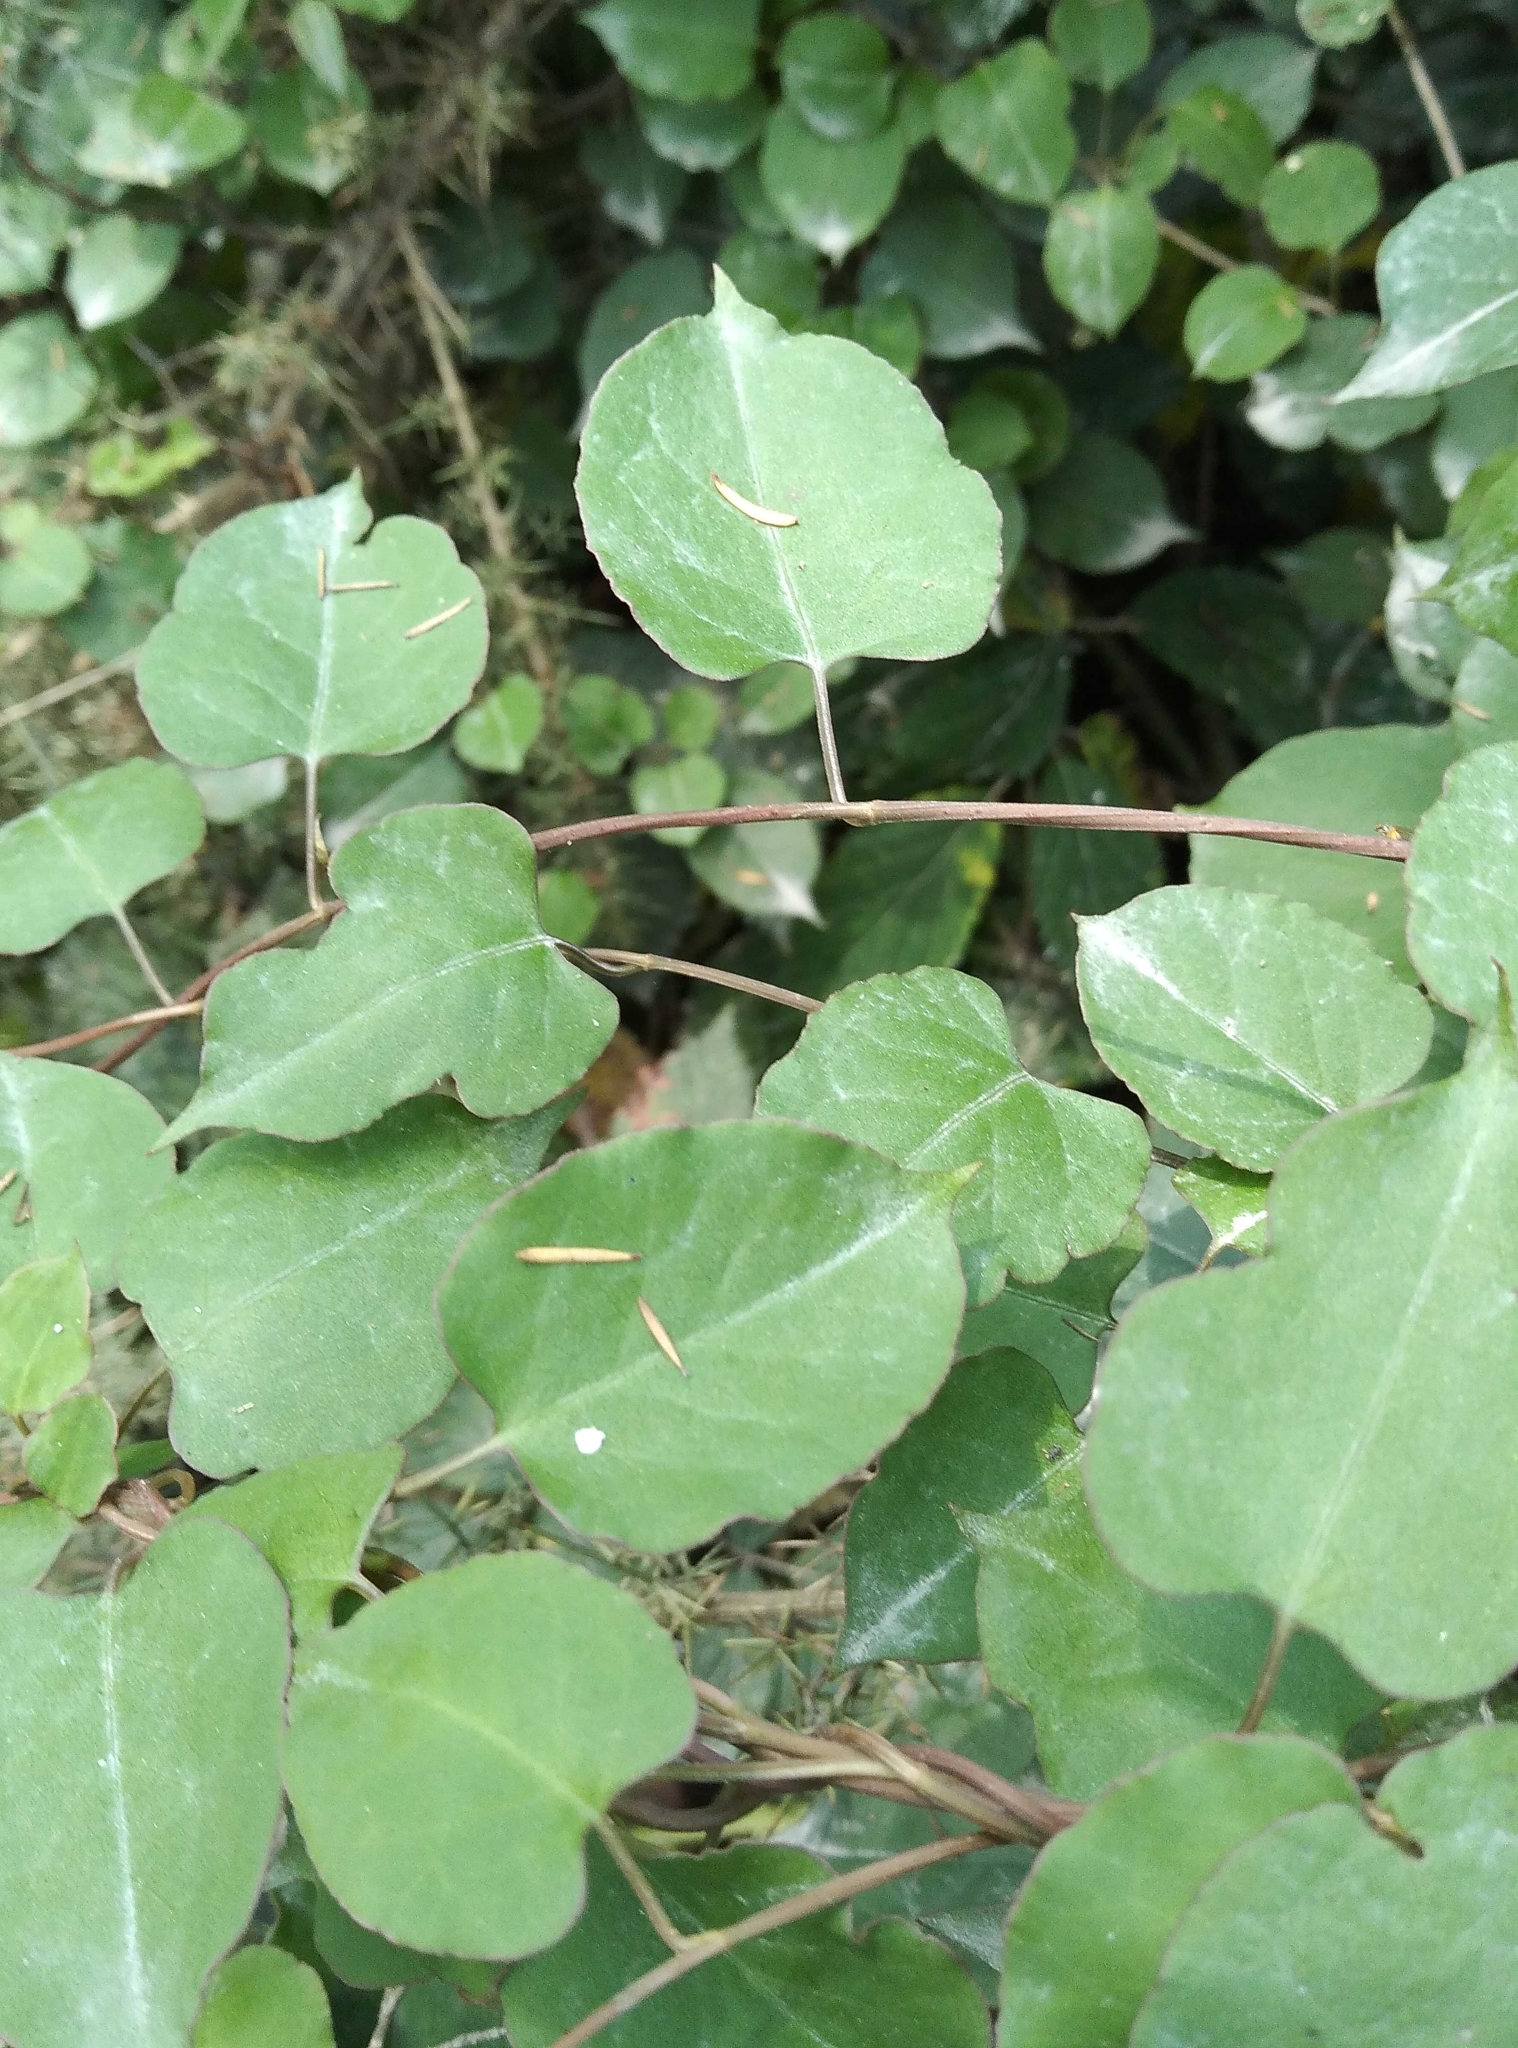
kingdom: Plantae
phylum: Tracheophyta
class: Magnoliopsida
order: Caryophyllales
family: Polygonaceae
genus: Muehlenbeckia
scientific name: Muehlenbeckia australis
